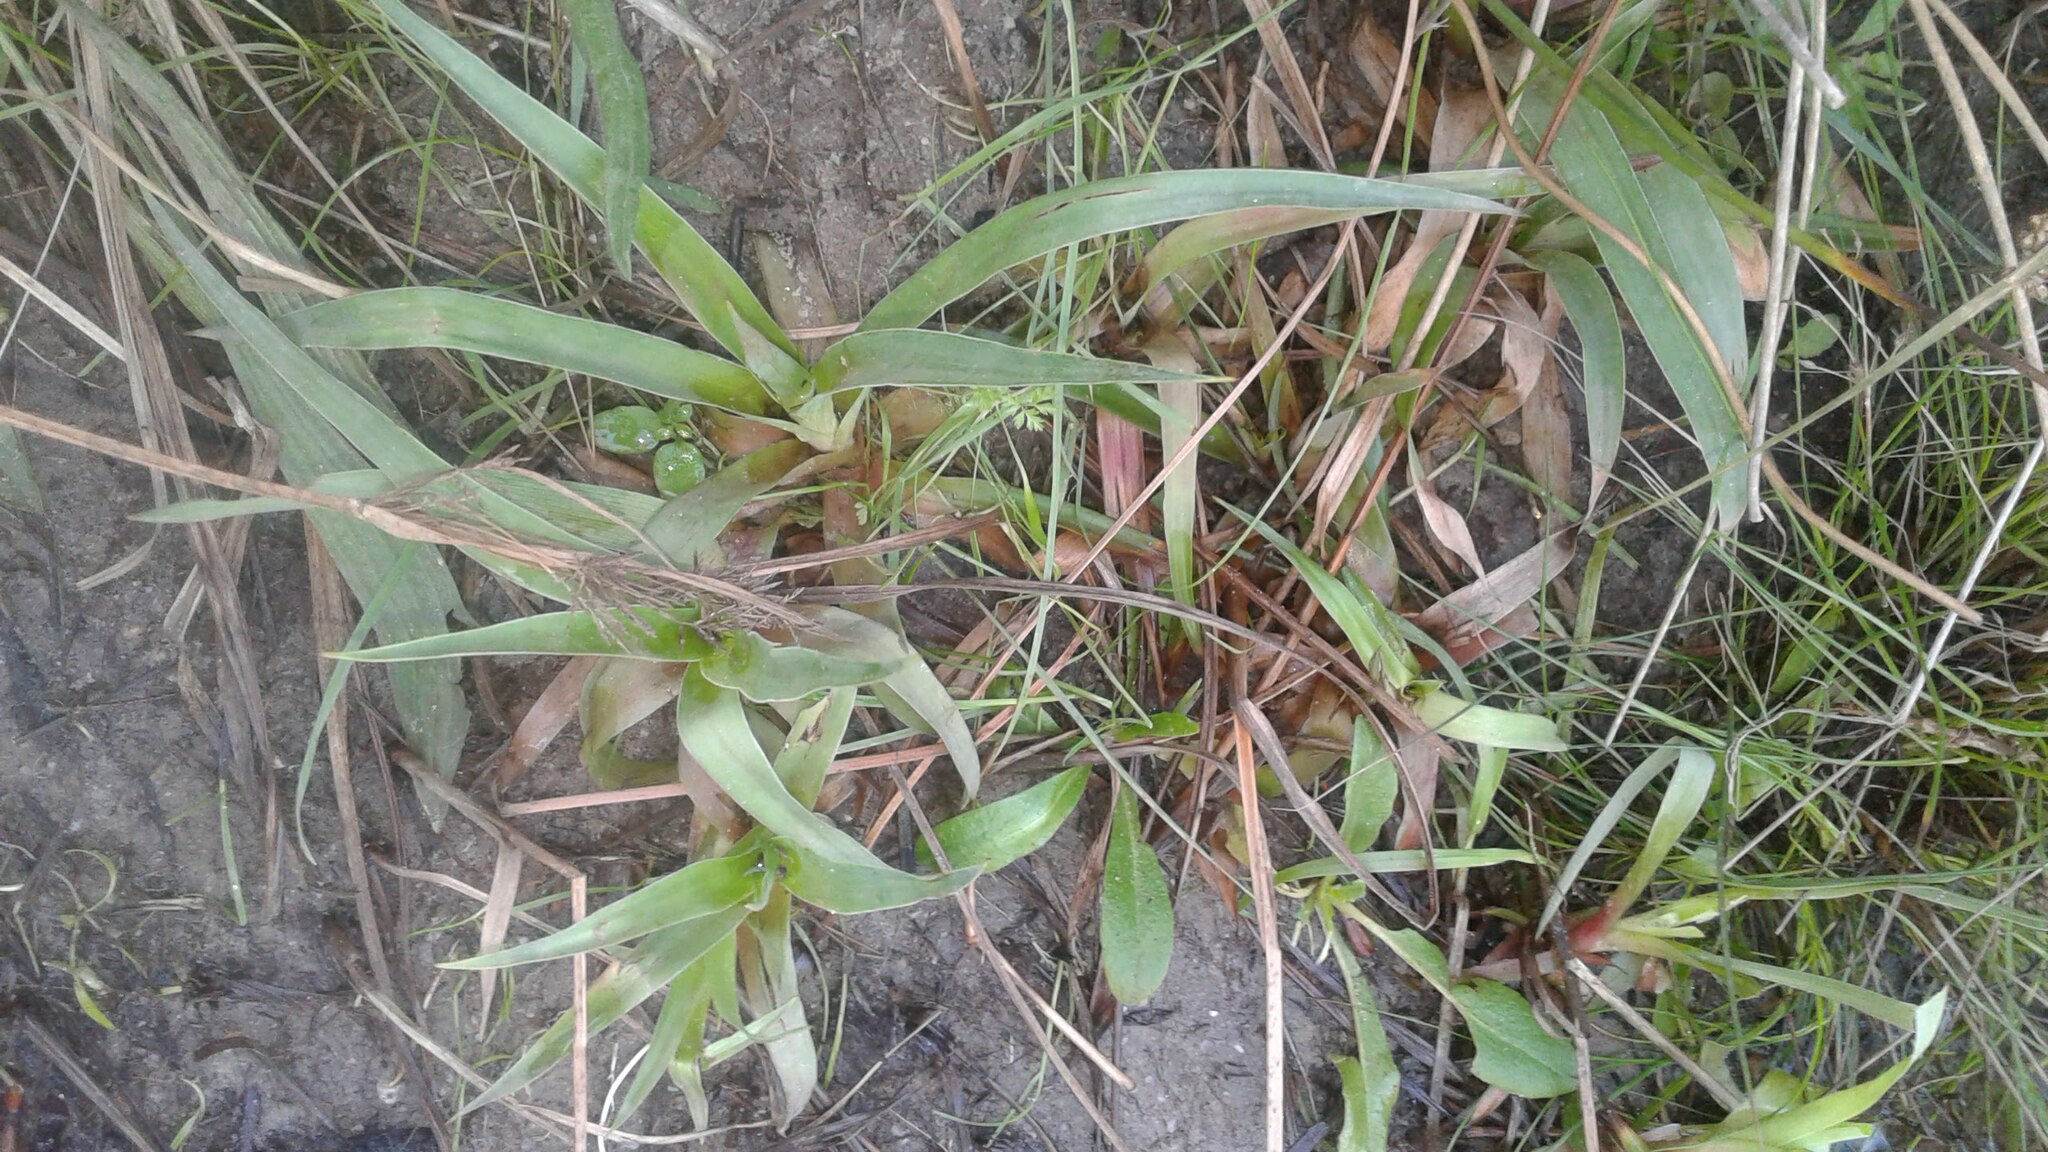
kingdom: Plantae
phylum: Tracheophyta
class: Liliopsida
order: Poales
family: Juncaceae
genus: Juncus
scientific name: Juncus lomatophyllus
